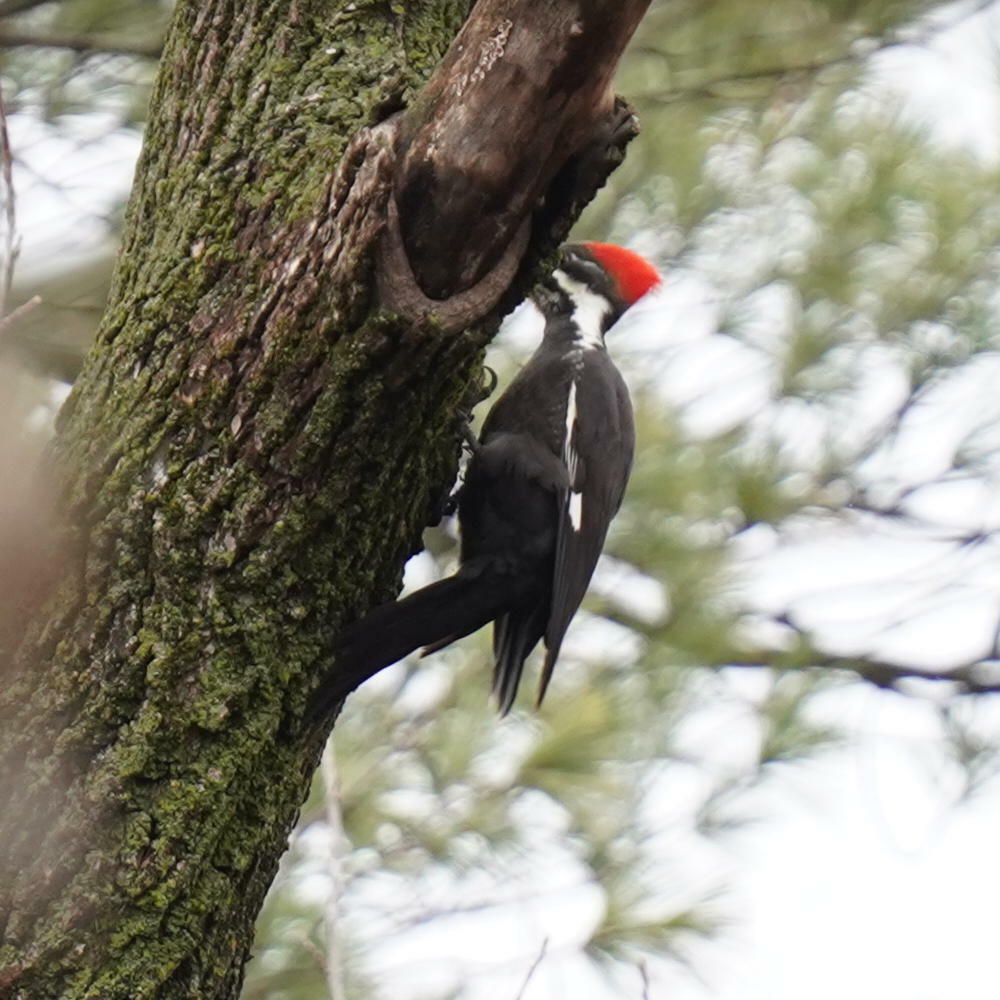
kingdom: Animalia
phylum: Chordata
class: Aves
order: Piciformes
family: Picidae
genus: Dryocopus
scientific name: Dryocopus pileatus
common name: Pileated woodpecker
